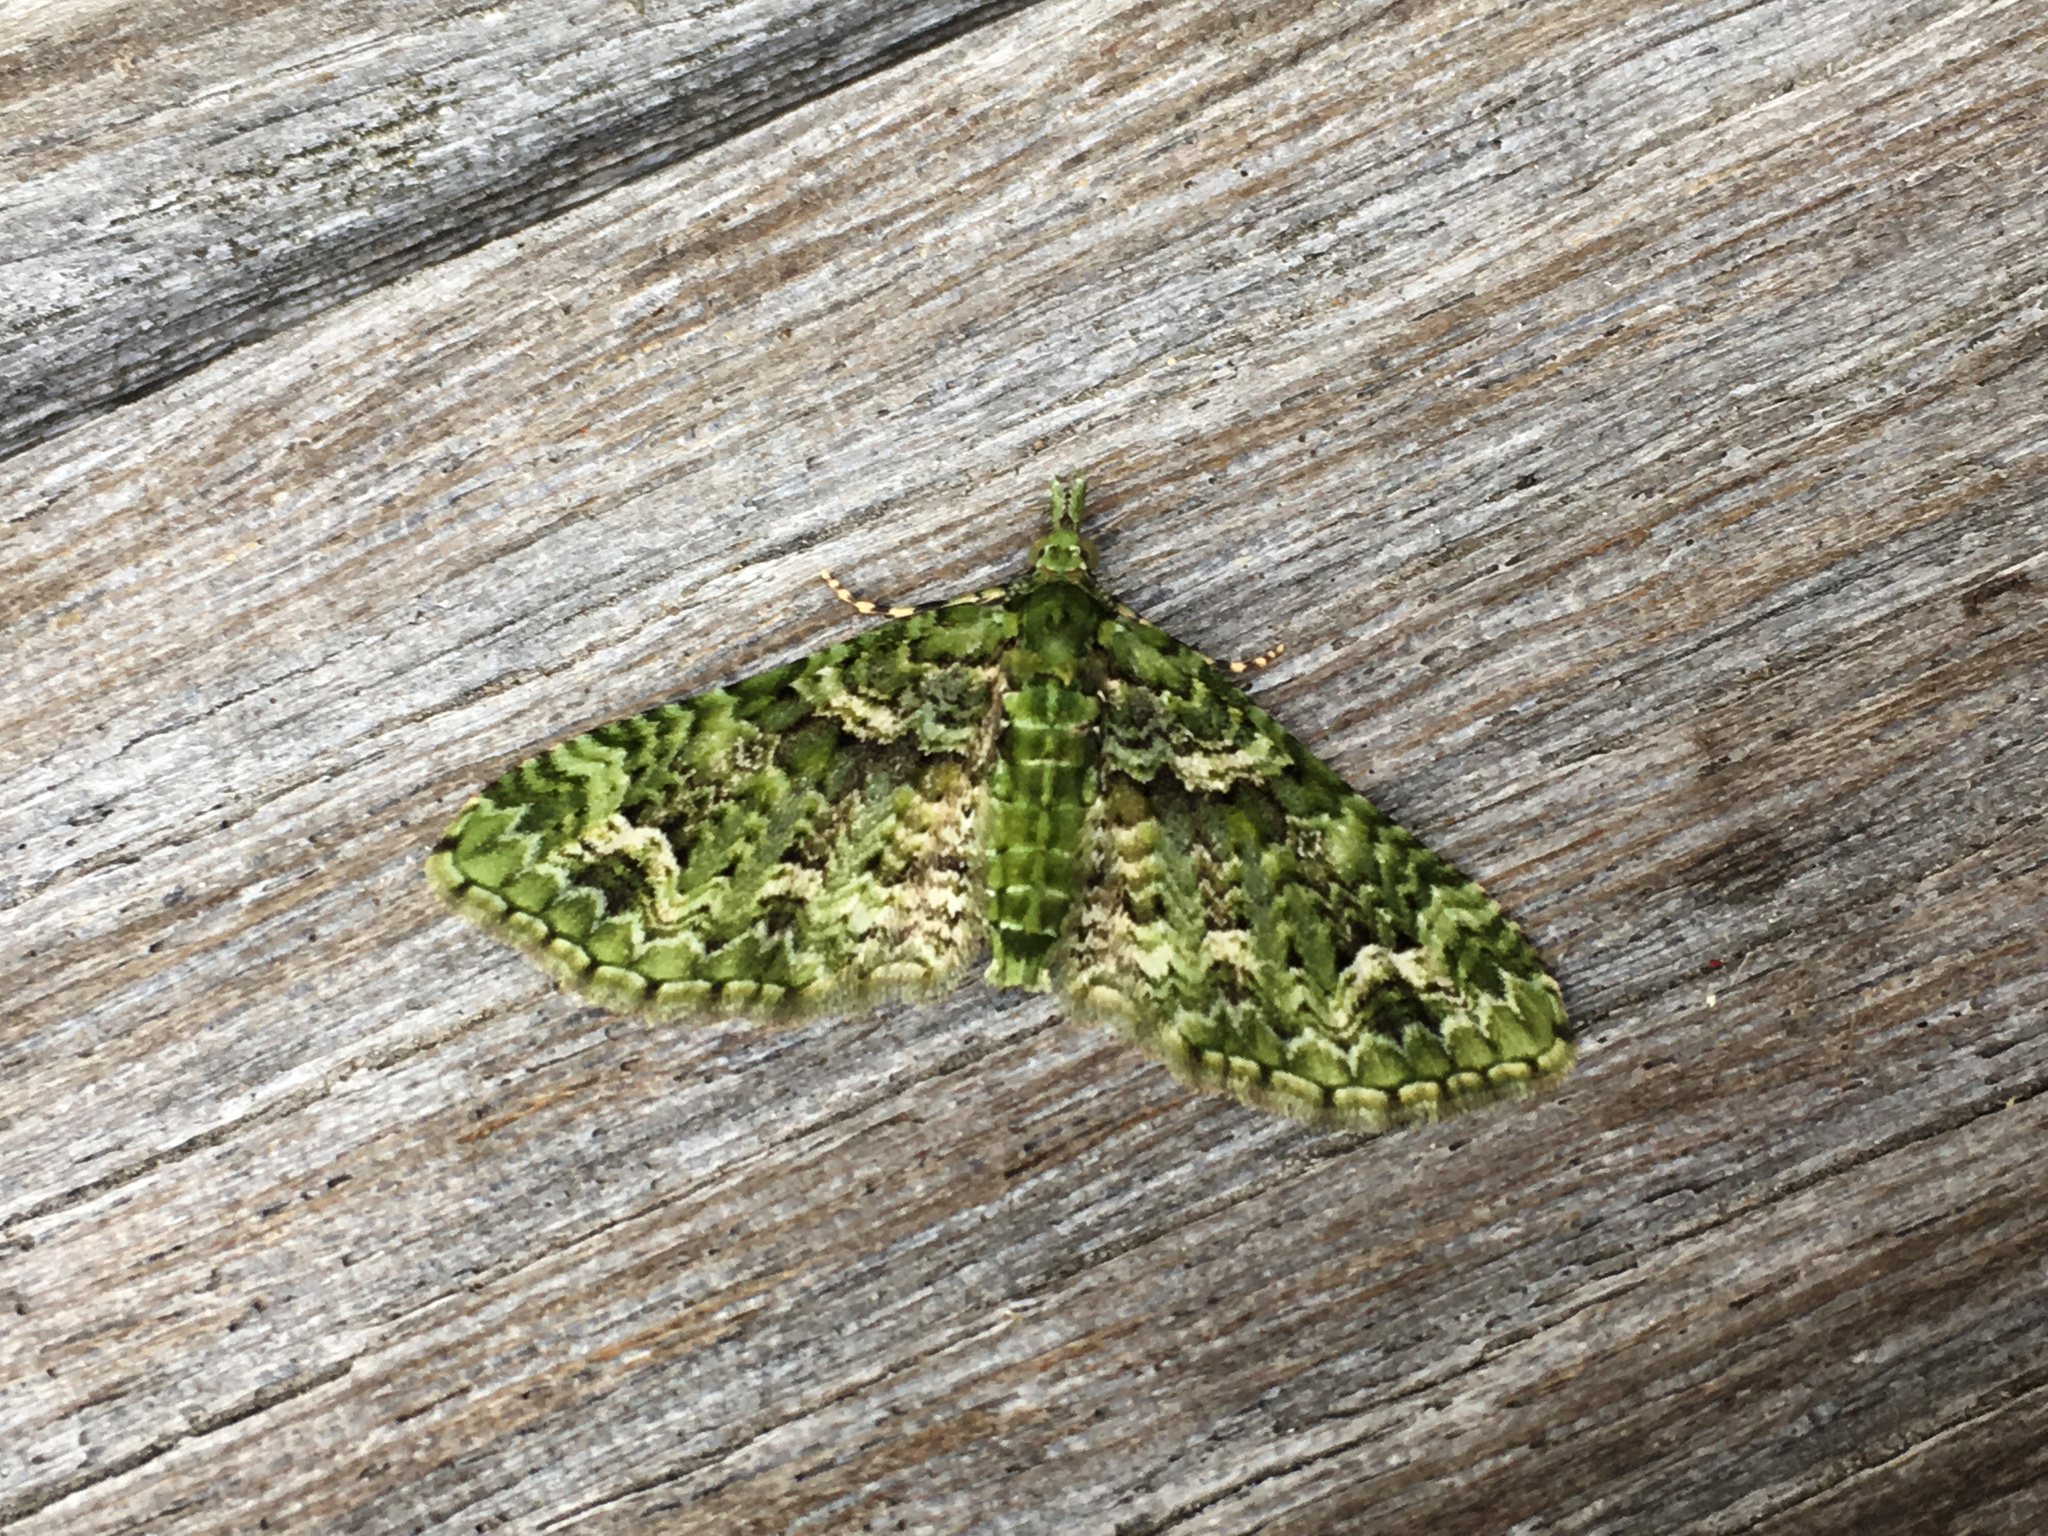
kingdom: Animalia
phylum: Arthropoda
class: Insecta
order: Lepidoptera
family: Geometridae
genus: Pasiphila
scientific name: Pasiphila muscosata
